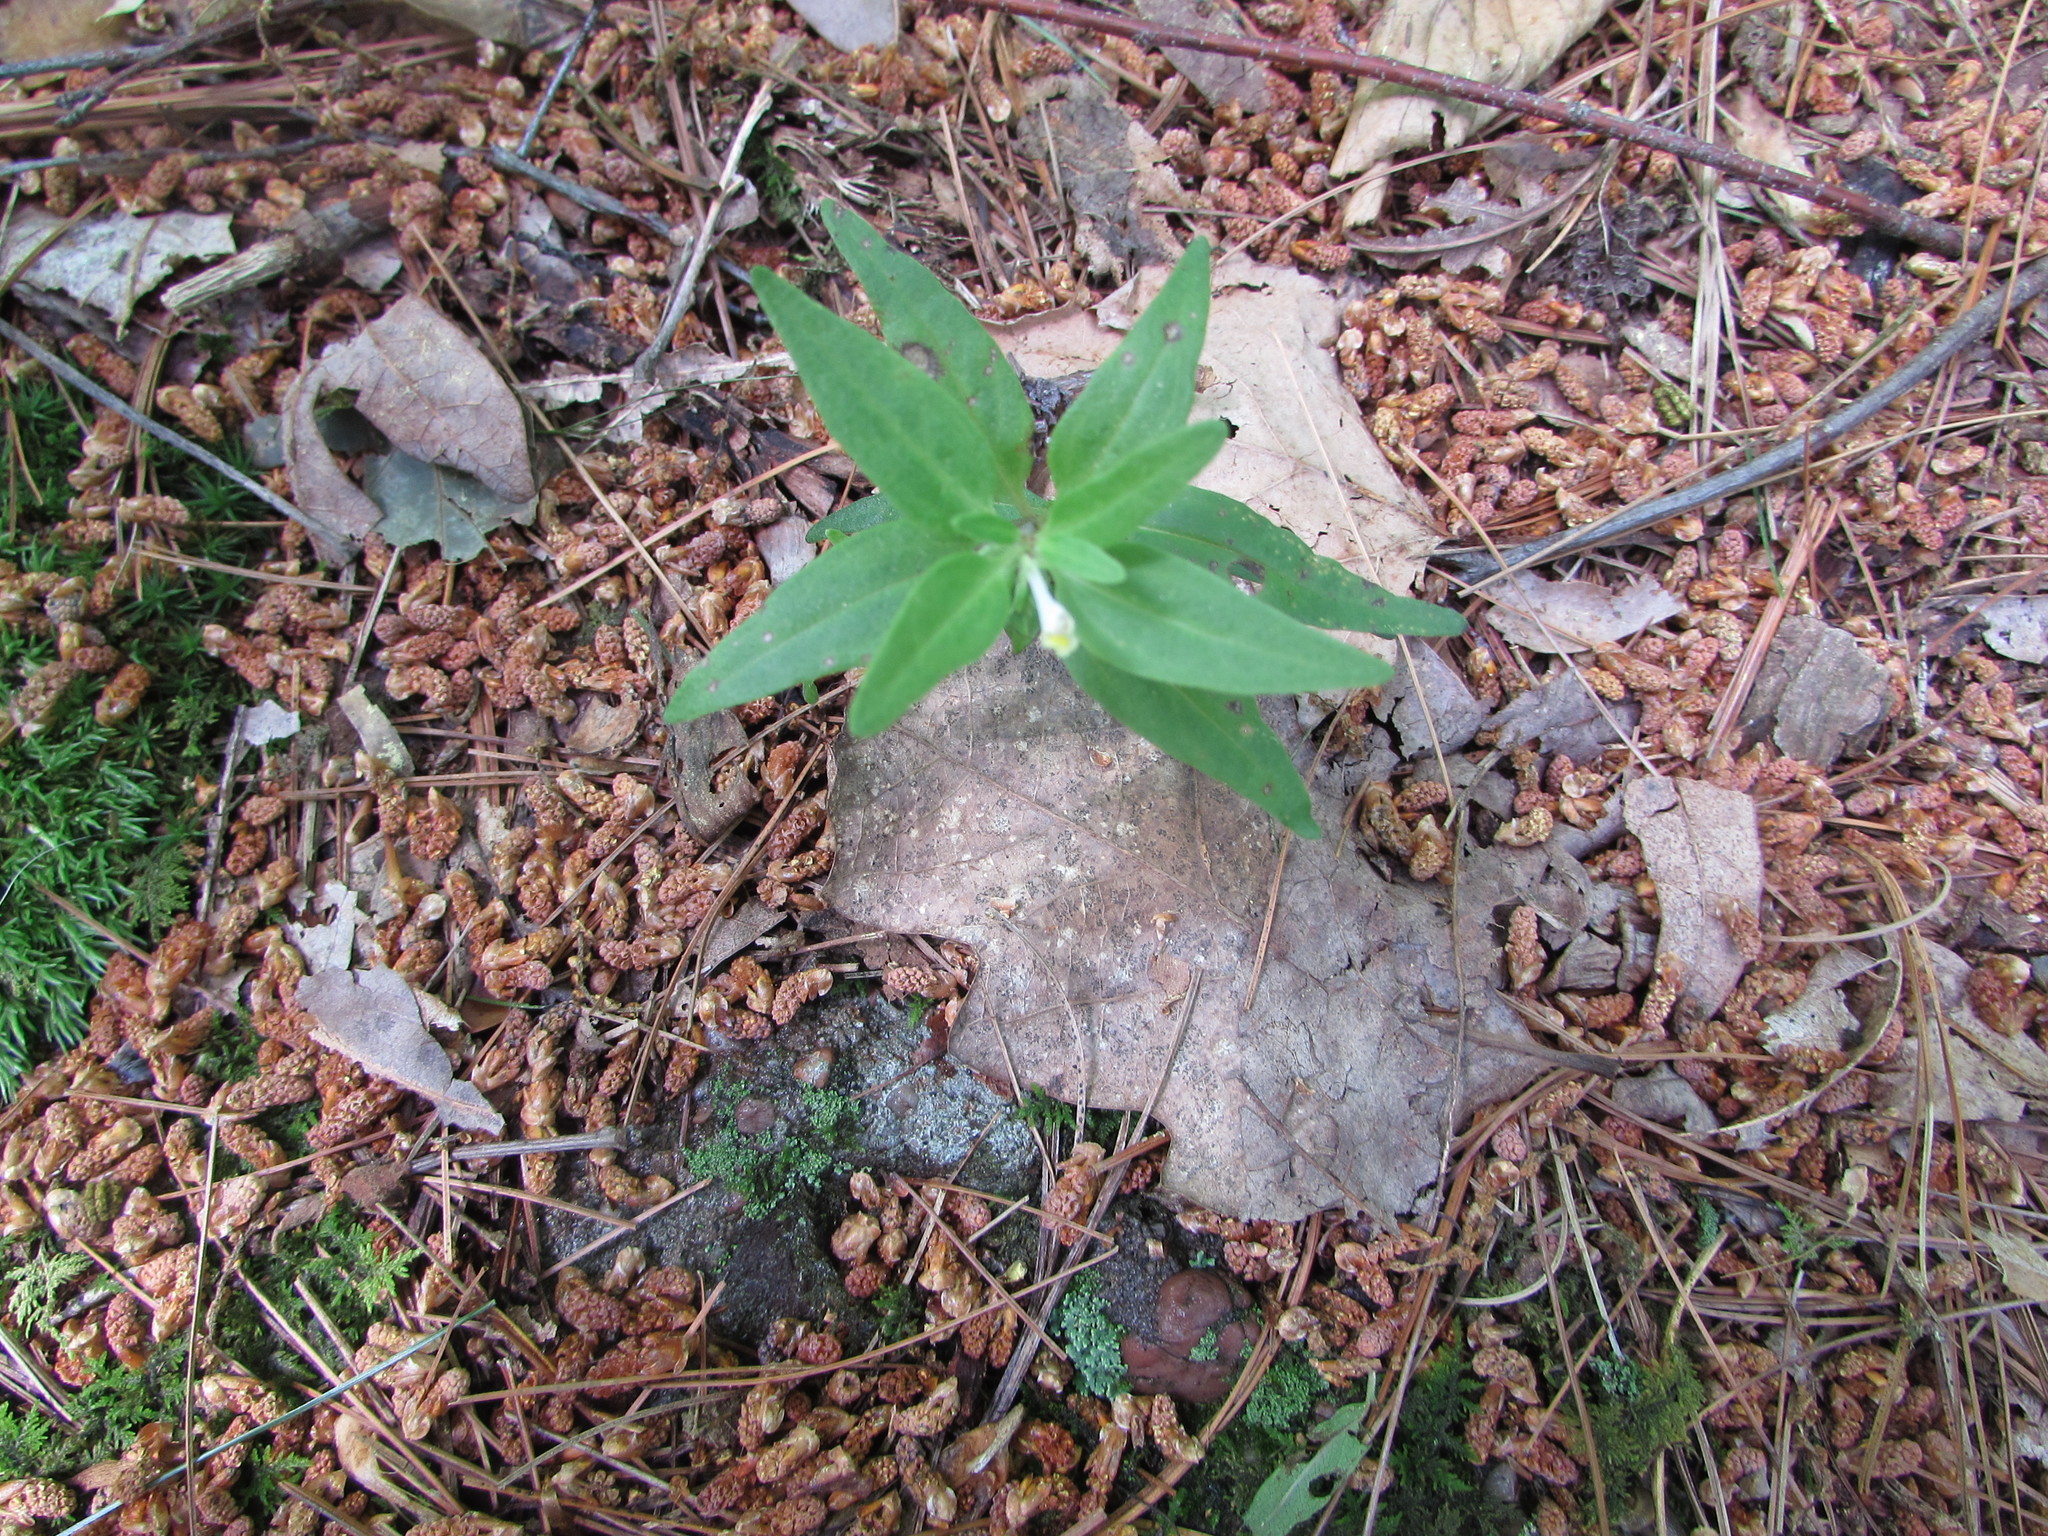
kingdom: Plantae
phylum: Tracheophyta
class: Magnoliopsida
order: Lamiales
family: Orobanchaceae
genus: Melampyrum
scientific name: Melampyrum lineare
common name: American cow-wheat
